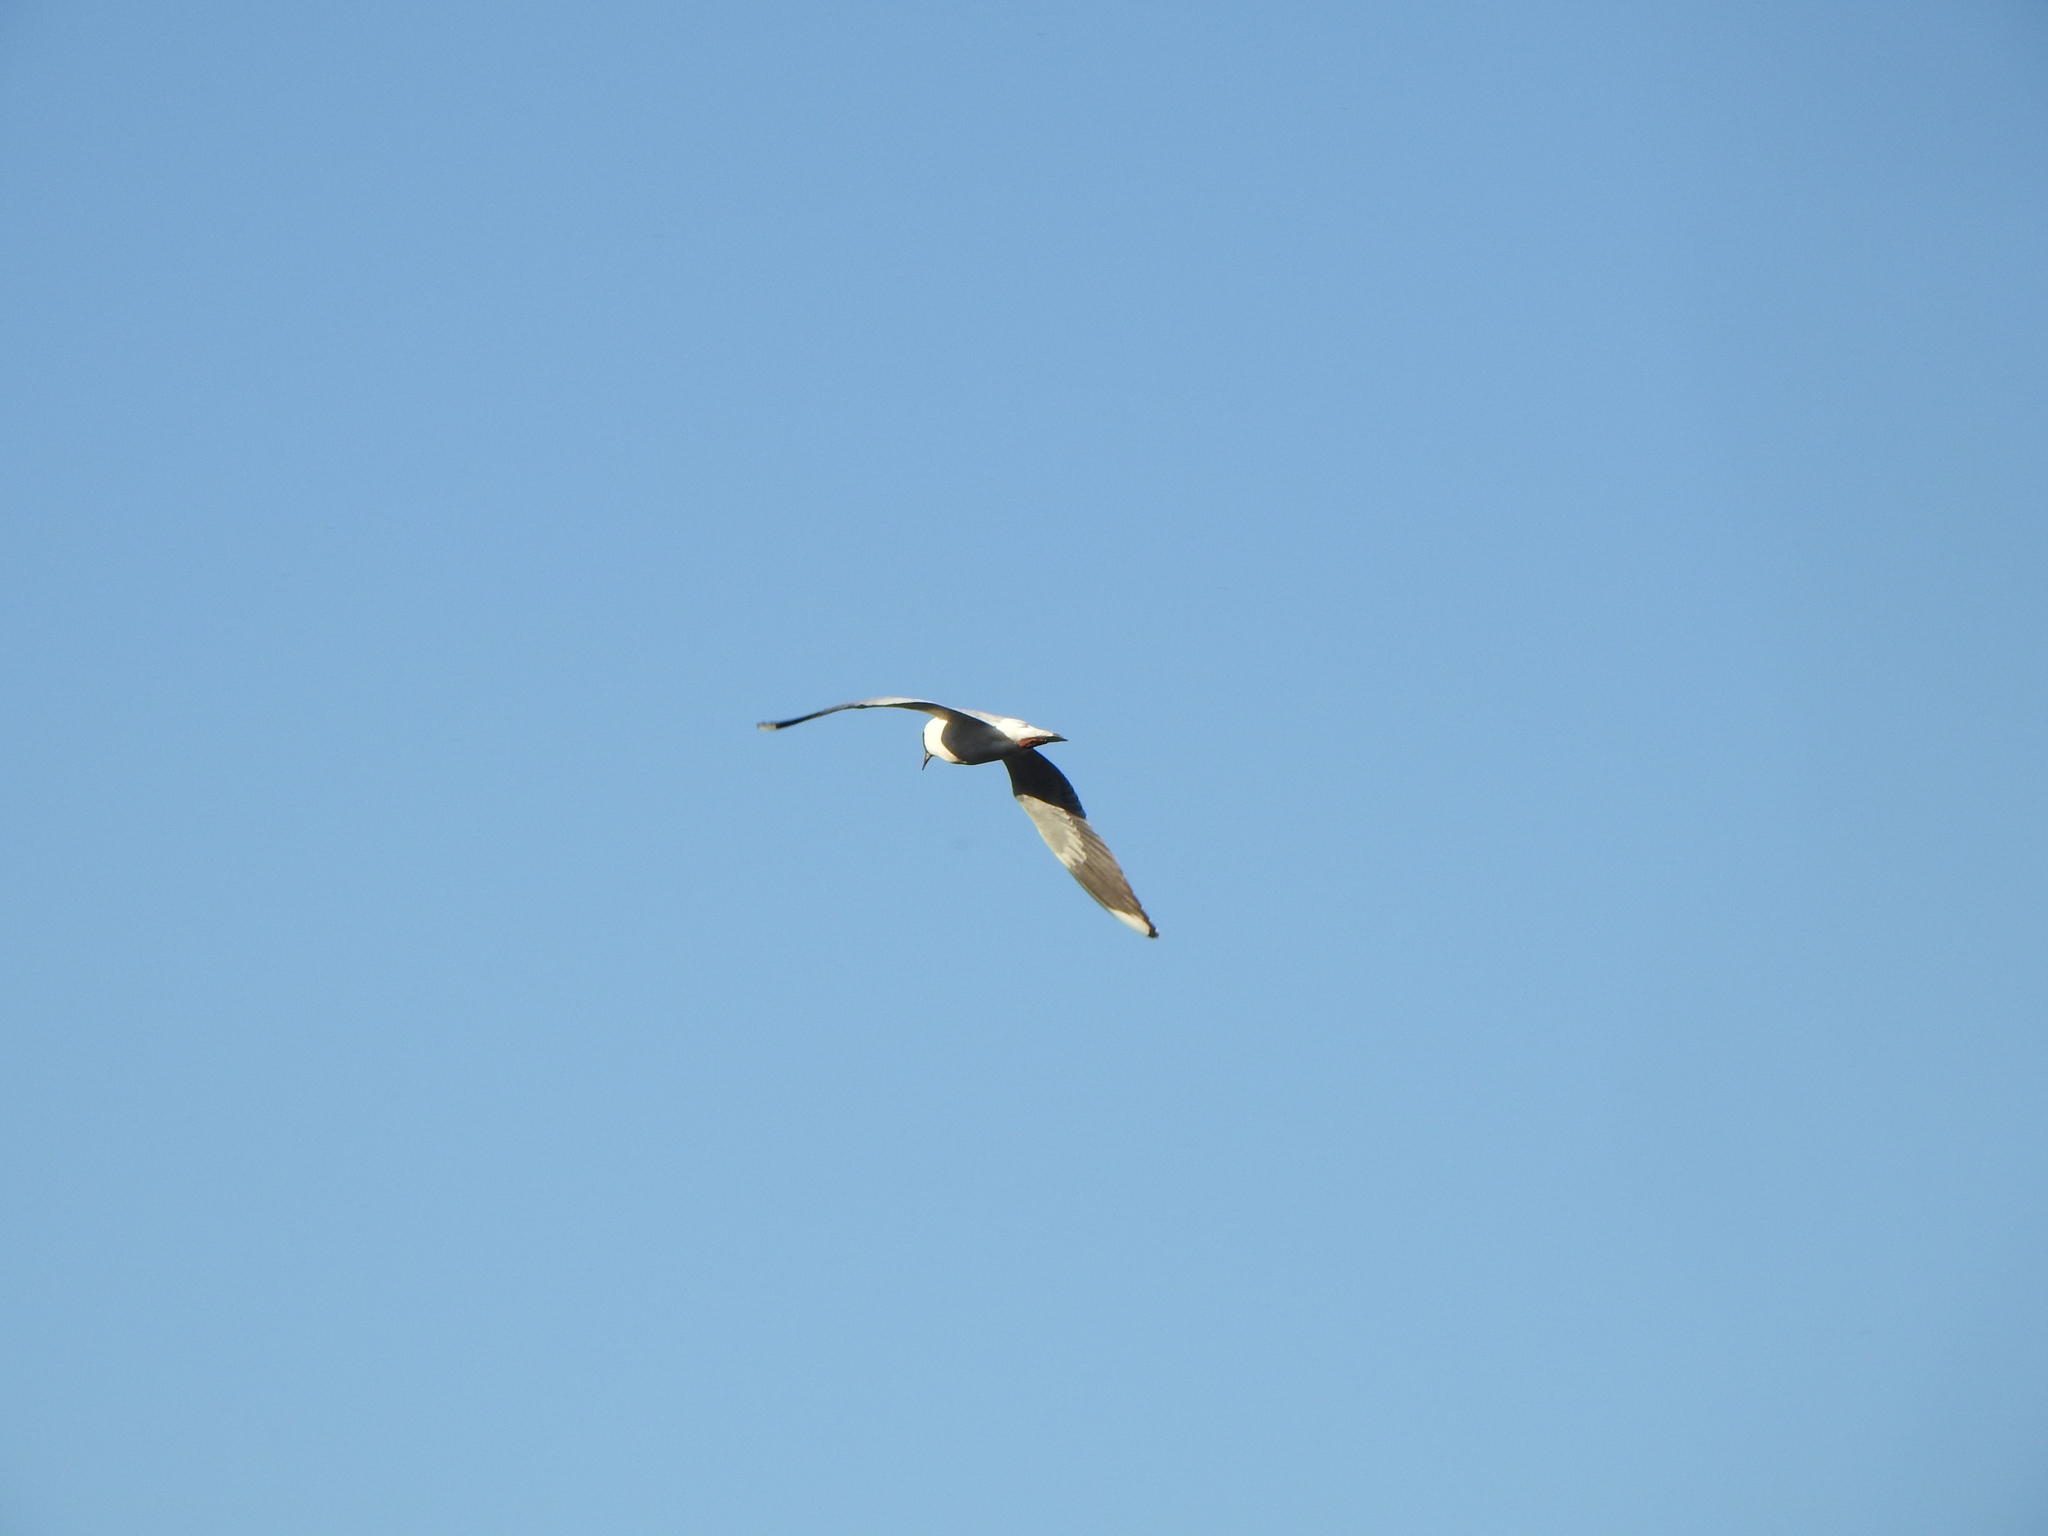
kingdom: Animalia
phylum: Chordata
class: Aves
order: Charadriiformes
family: Laridae
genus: Chroicocephalus
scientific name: Chroicocephalus cirrocephalus
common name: Grey-headed gull
